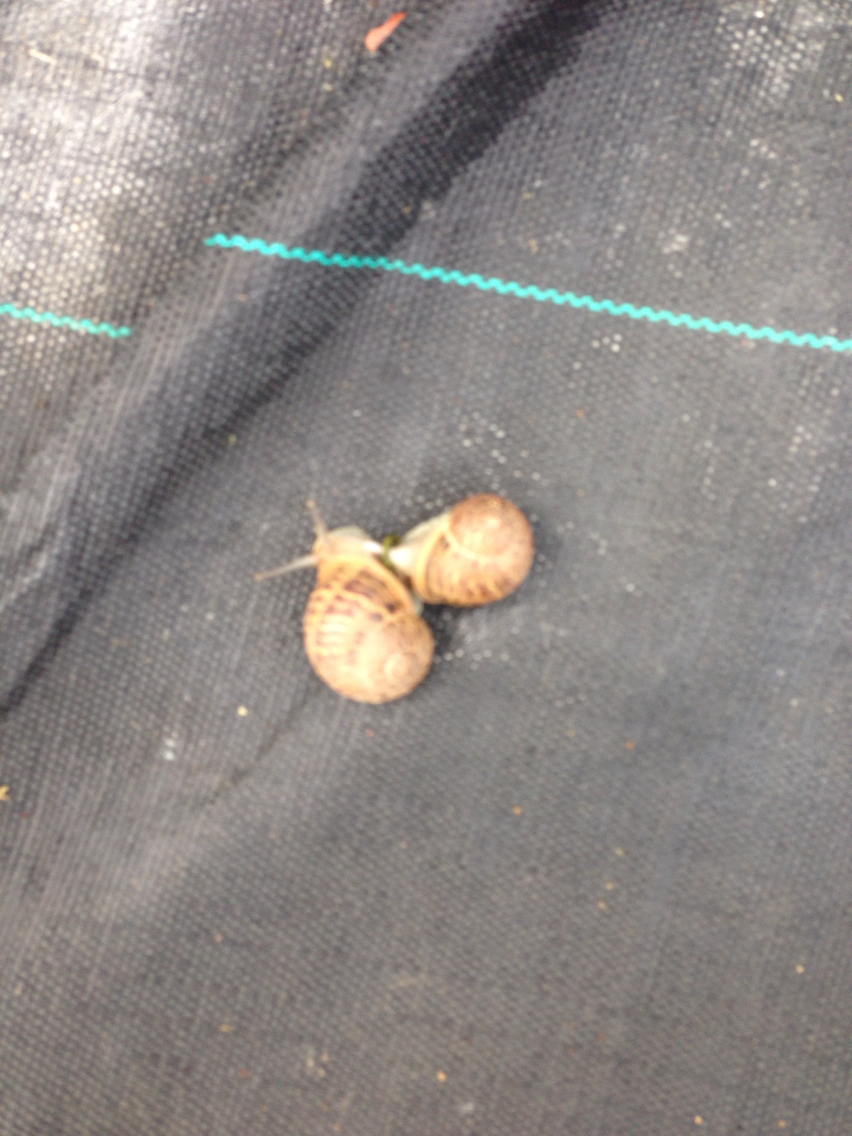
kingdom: Animalia
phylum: Mollusca
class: Gastropoda
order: Stylommatophora
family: Helicidae
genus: Cornu
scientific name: Cornu aspersum
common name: Brown garden snail
